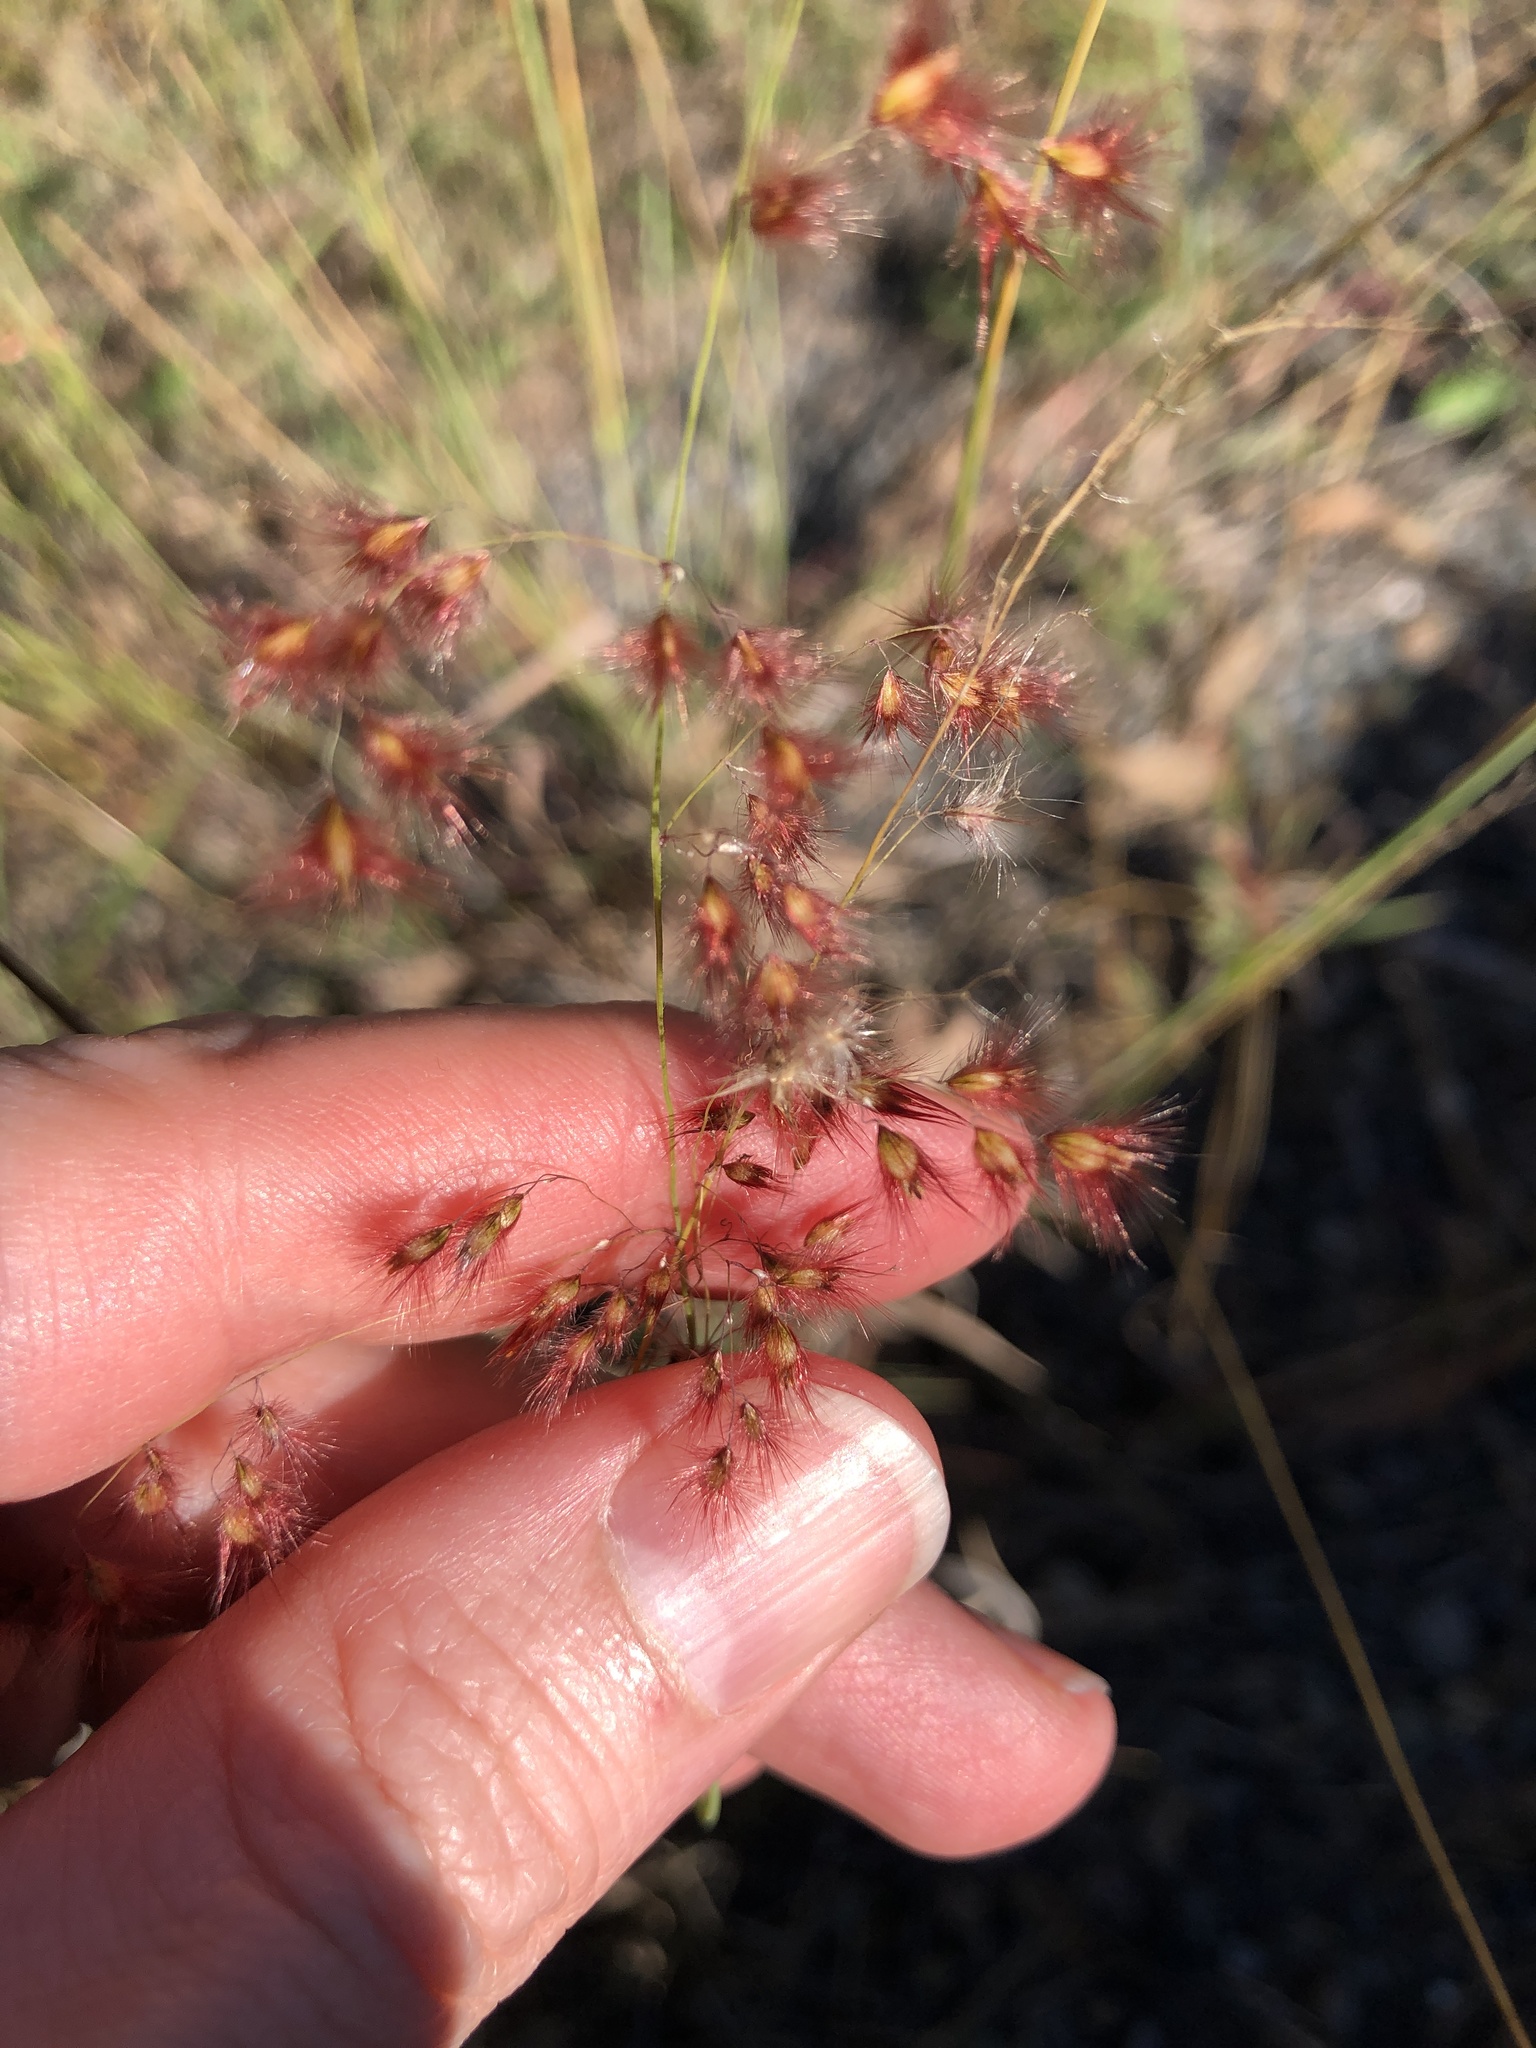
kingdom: Plantae
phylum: Tracheophyta
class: Liliopsida
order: Poales
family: Poaceae
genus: Melinis
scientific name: Melinis repens
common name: Rose natal grass
